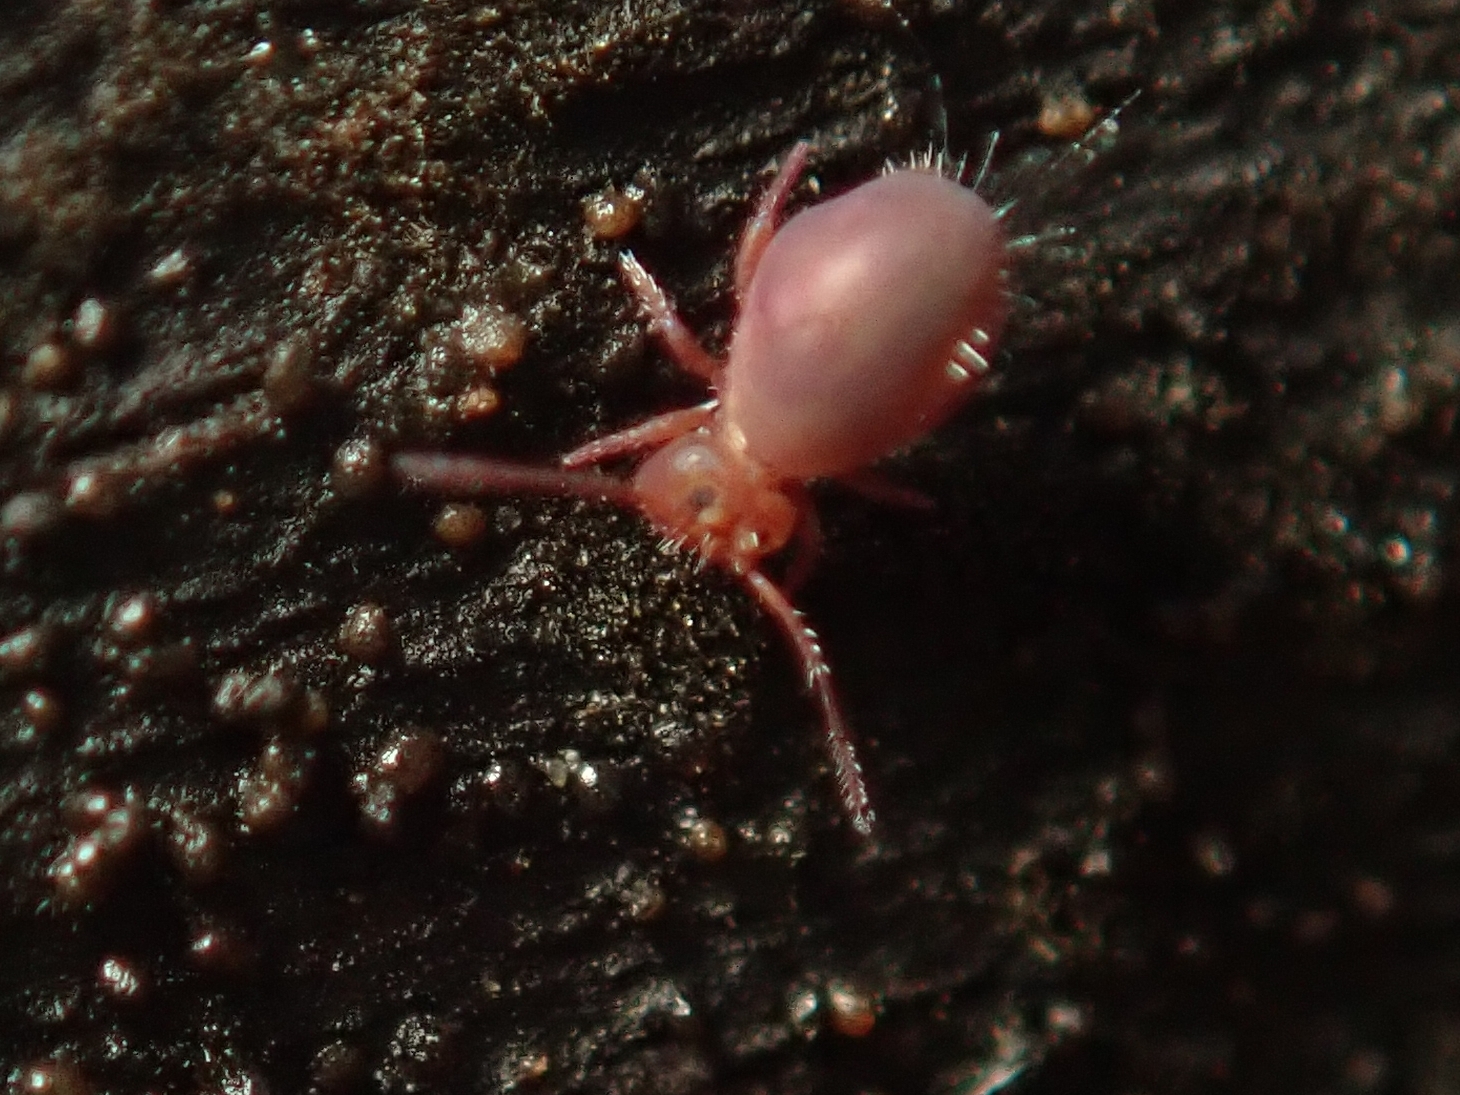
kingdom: Animalia
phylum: Arthropoda
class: Collembola
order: Symphypleona
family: Dicyrtomidae
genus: Dicyrtoma
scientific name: Dicyrtoma fusca
